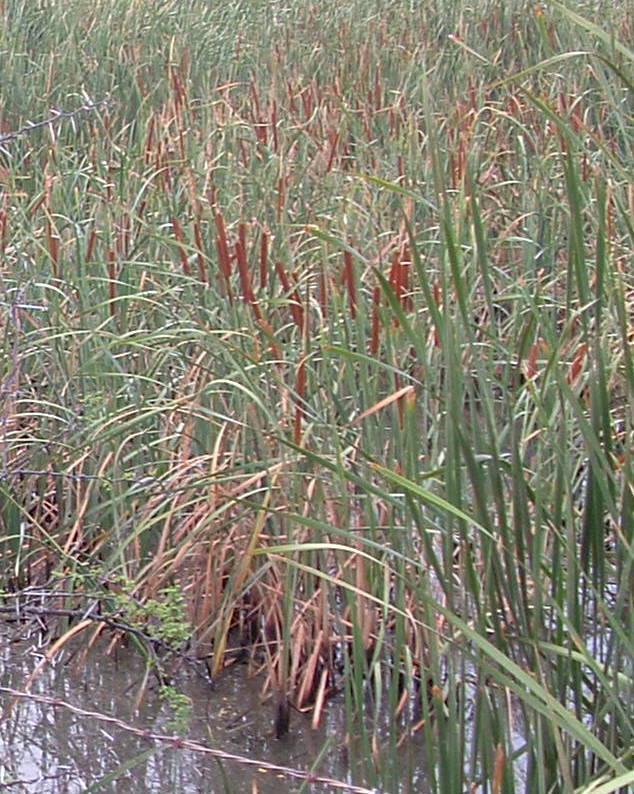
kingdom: Plantae
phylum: Tracheophyta
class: Liliopsida
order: Poales
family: Typhaceae
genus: Typha
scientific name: Typha capensis
